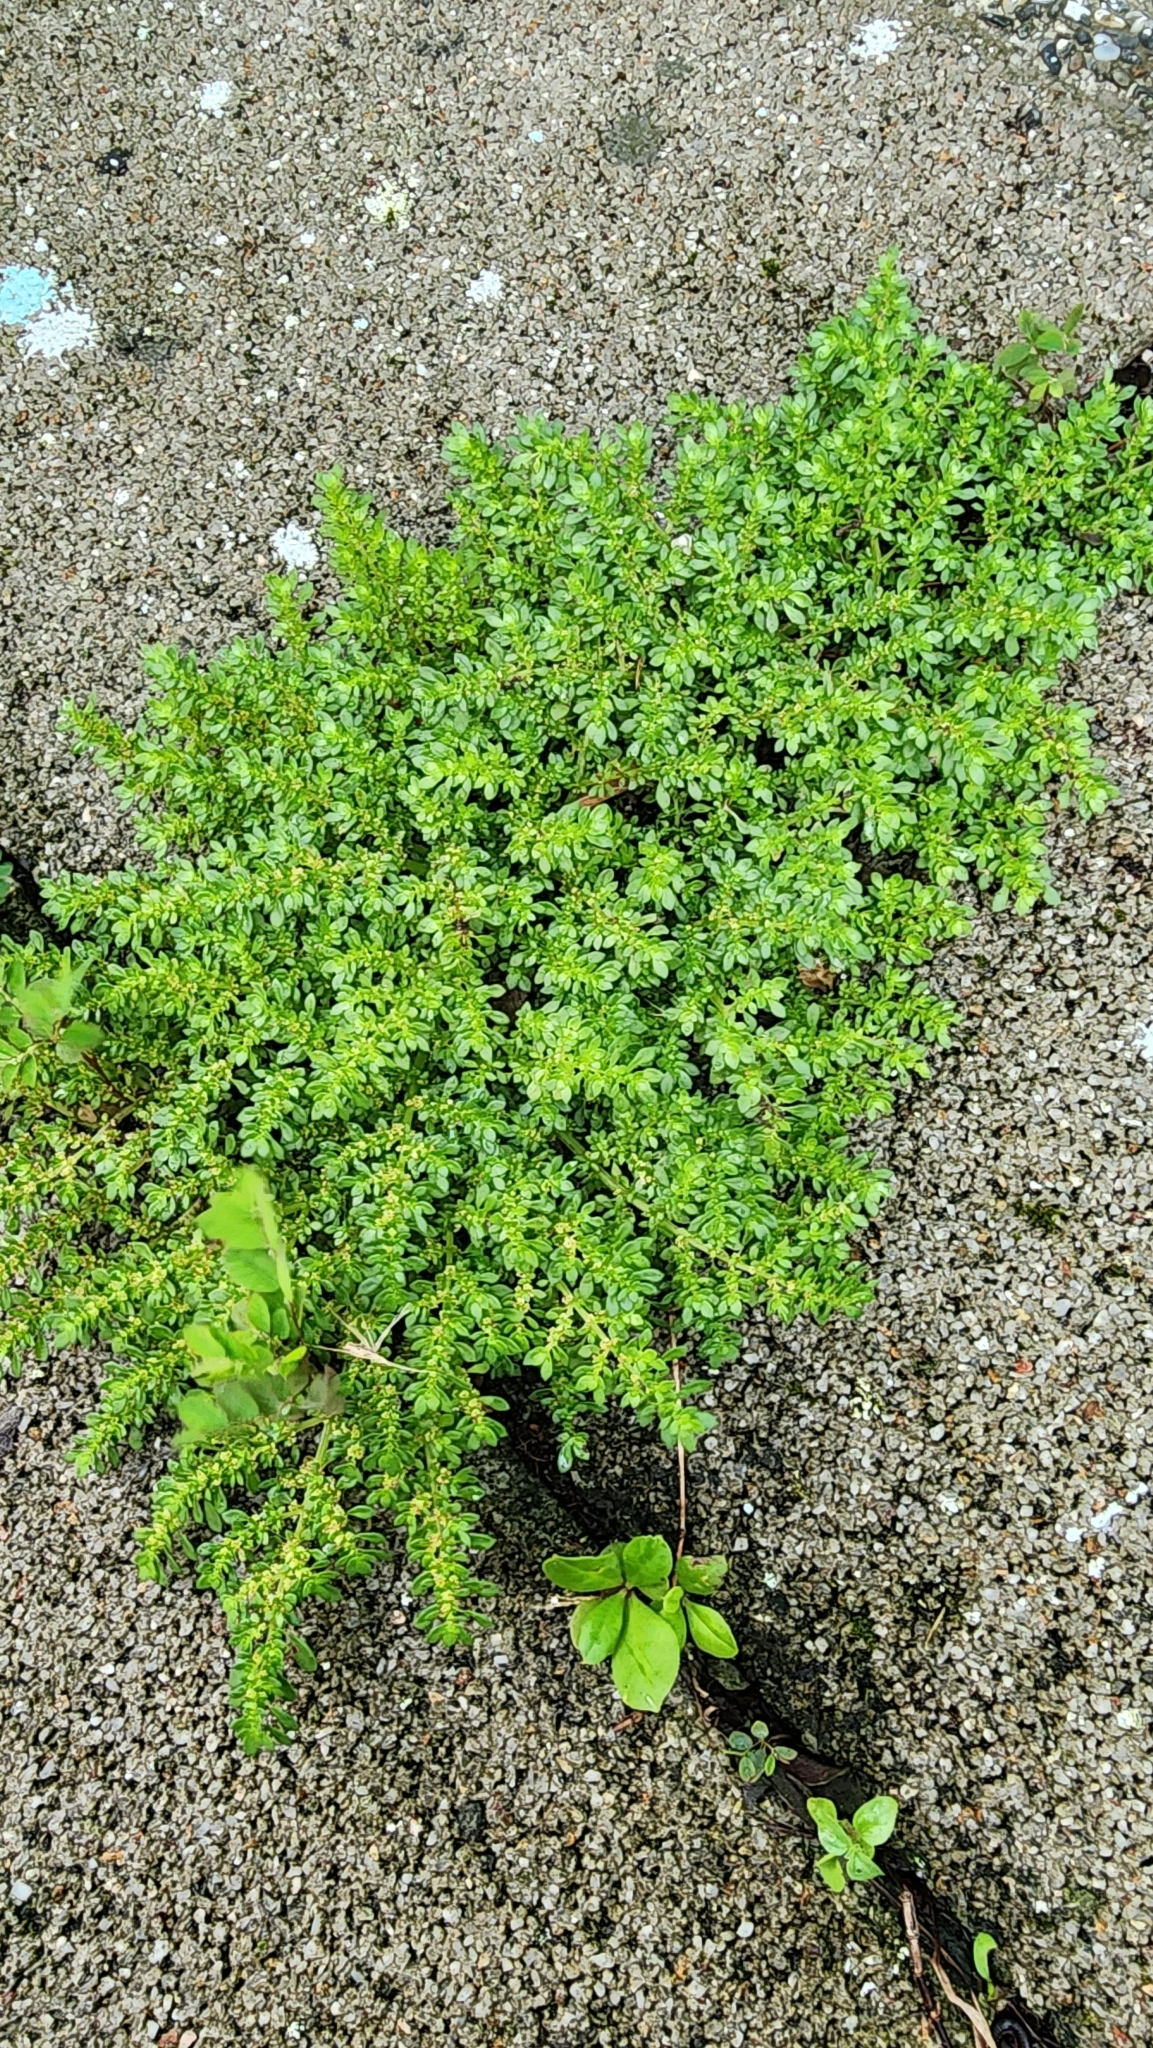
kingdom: Plantae
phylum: Tracheophyta
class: Magnoliopsida
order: Rosales
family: Urticaceae
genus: Pilea
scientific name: Pilea microphylla
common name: Artillery-plant
